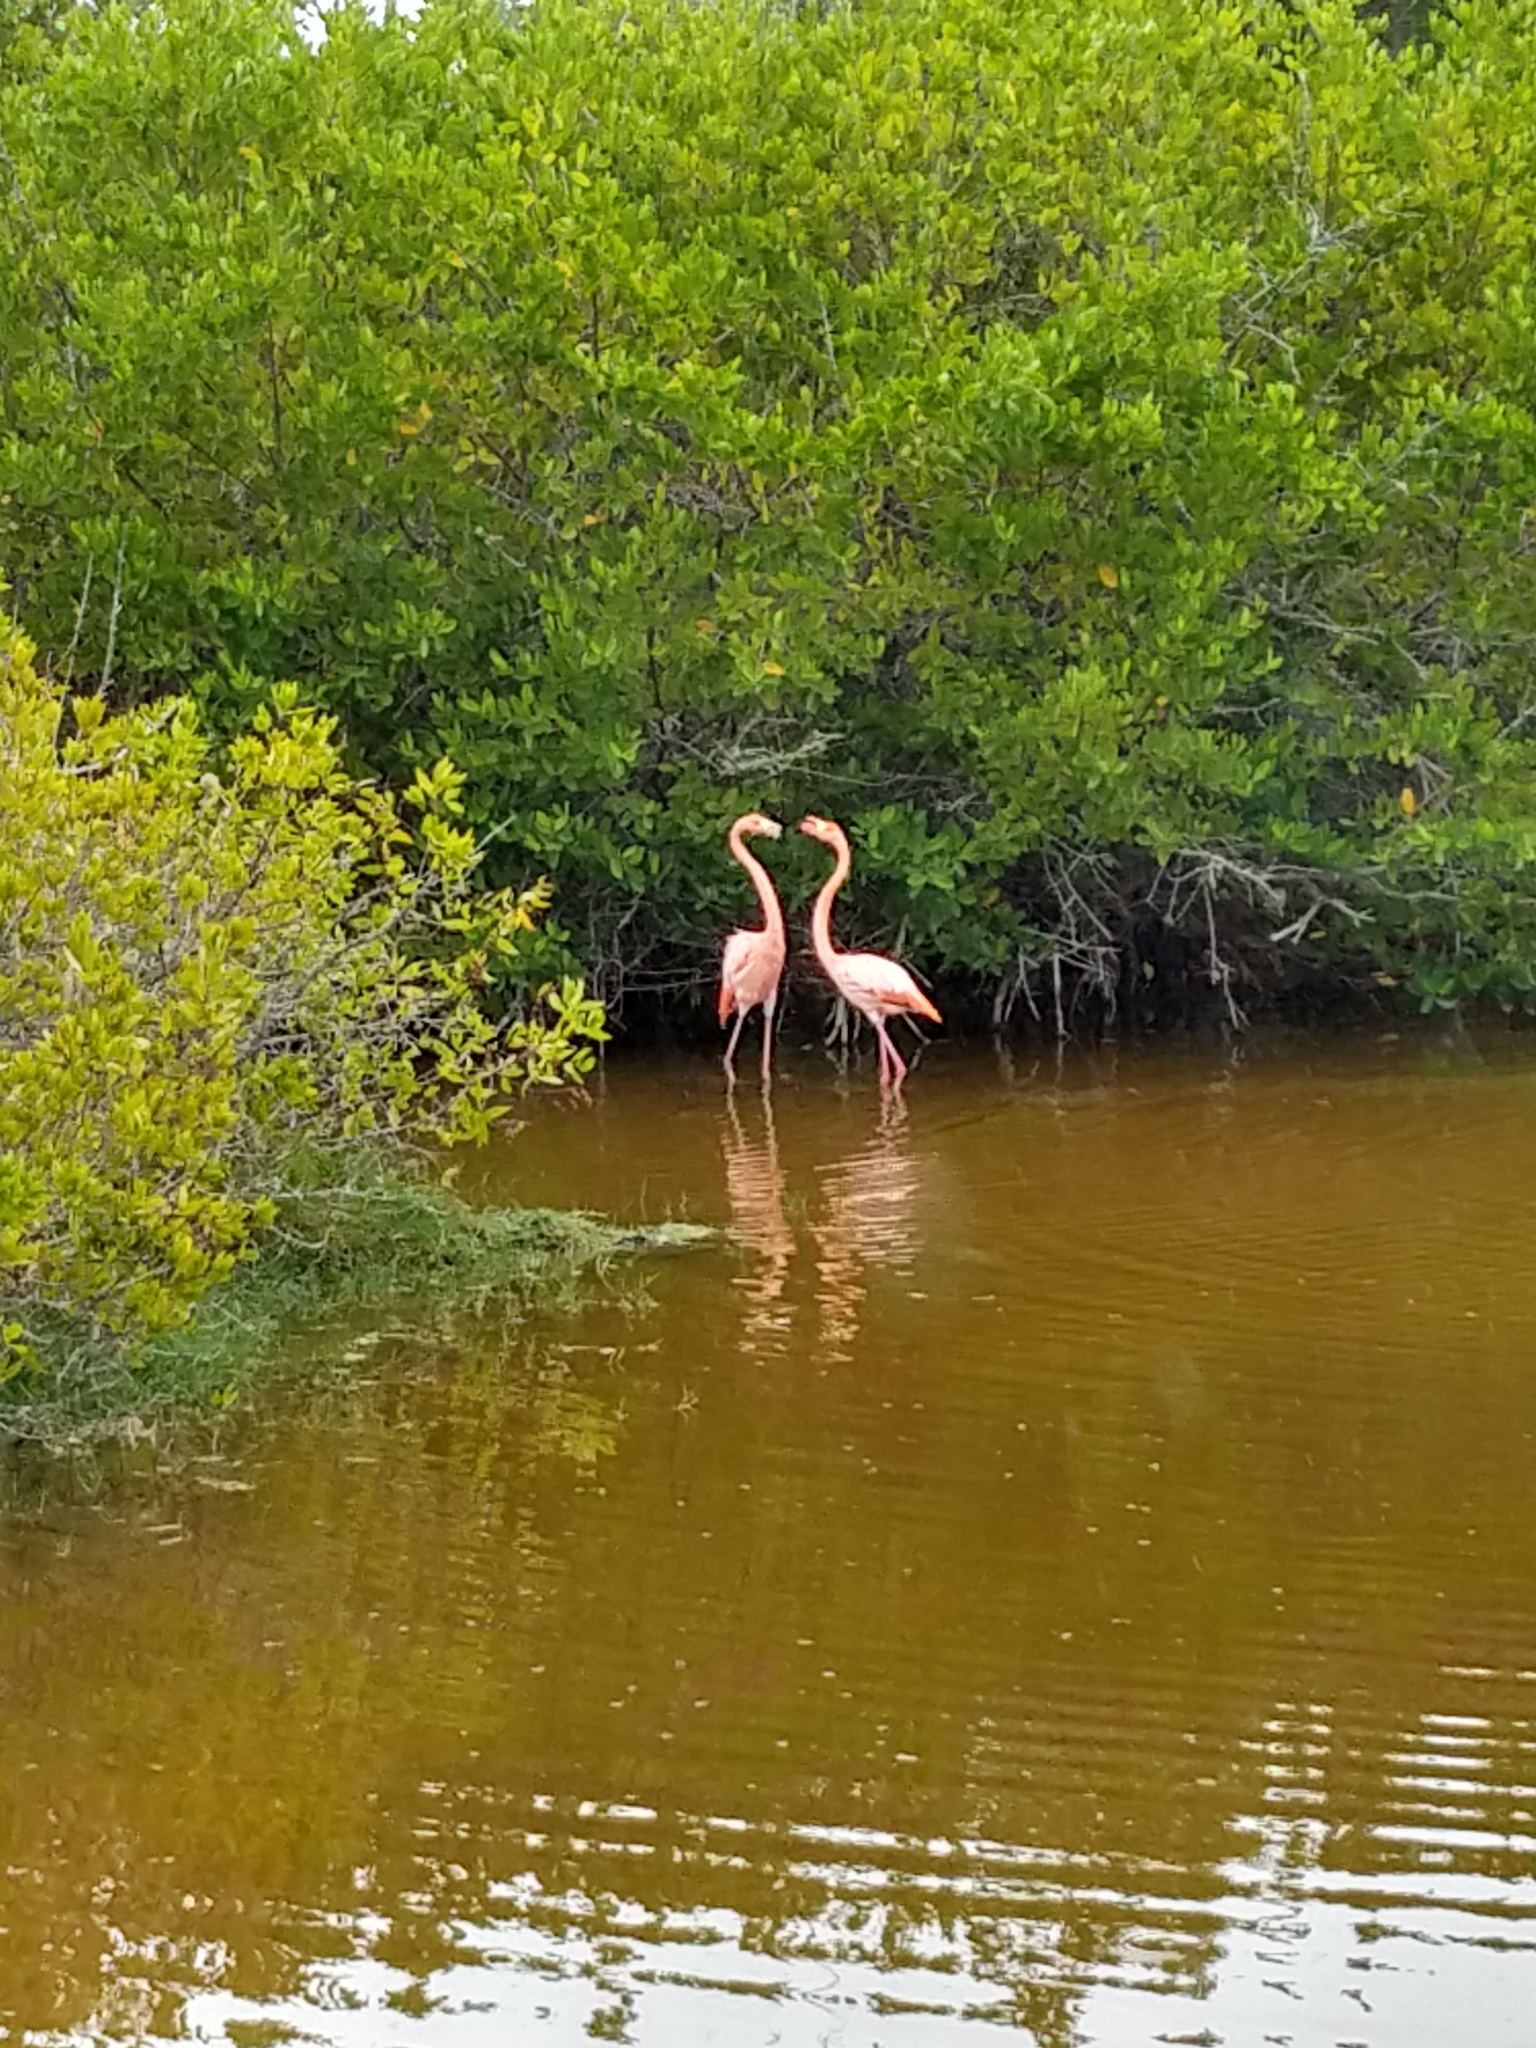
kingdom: Animalia
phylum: Chordata
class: Aves
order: Phoenicopteriformes
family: Phoenicopteridae
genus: Phoenicopterus
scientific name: Phoenicopterus ruber
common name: American flamingo
